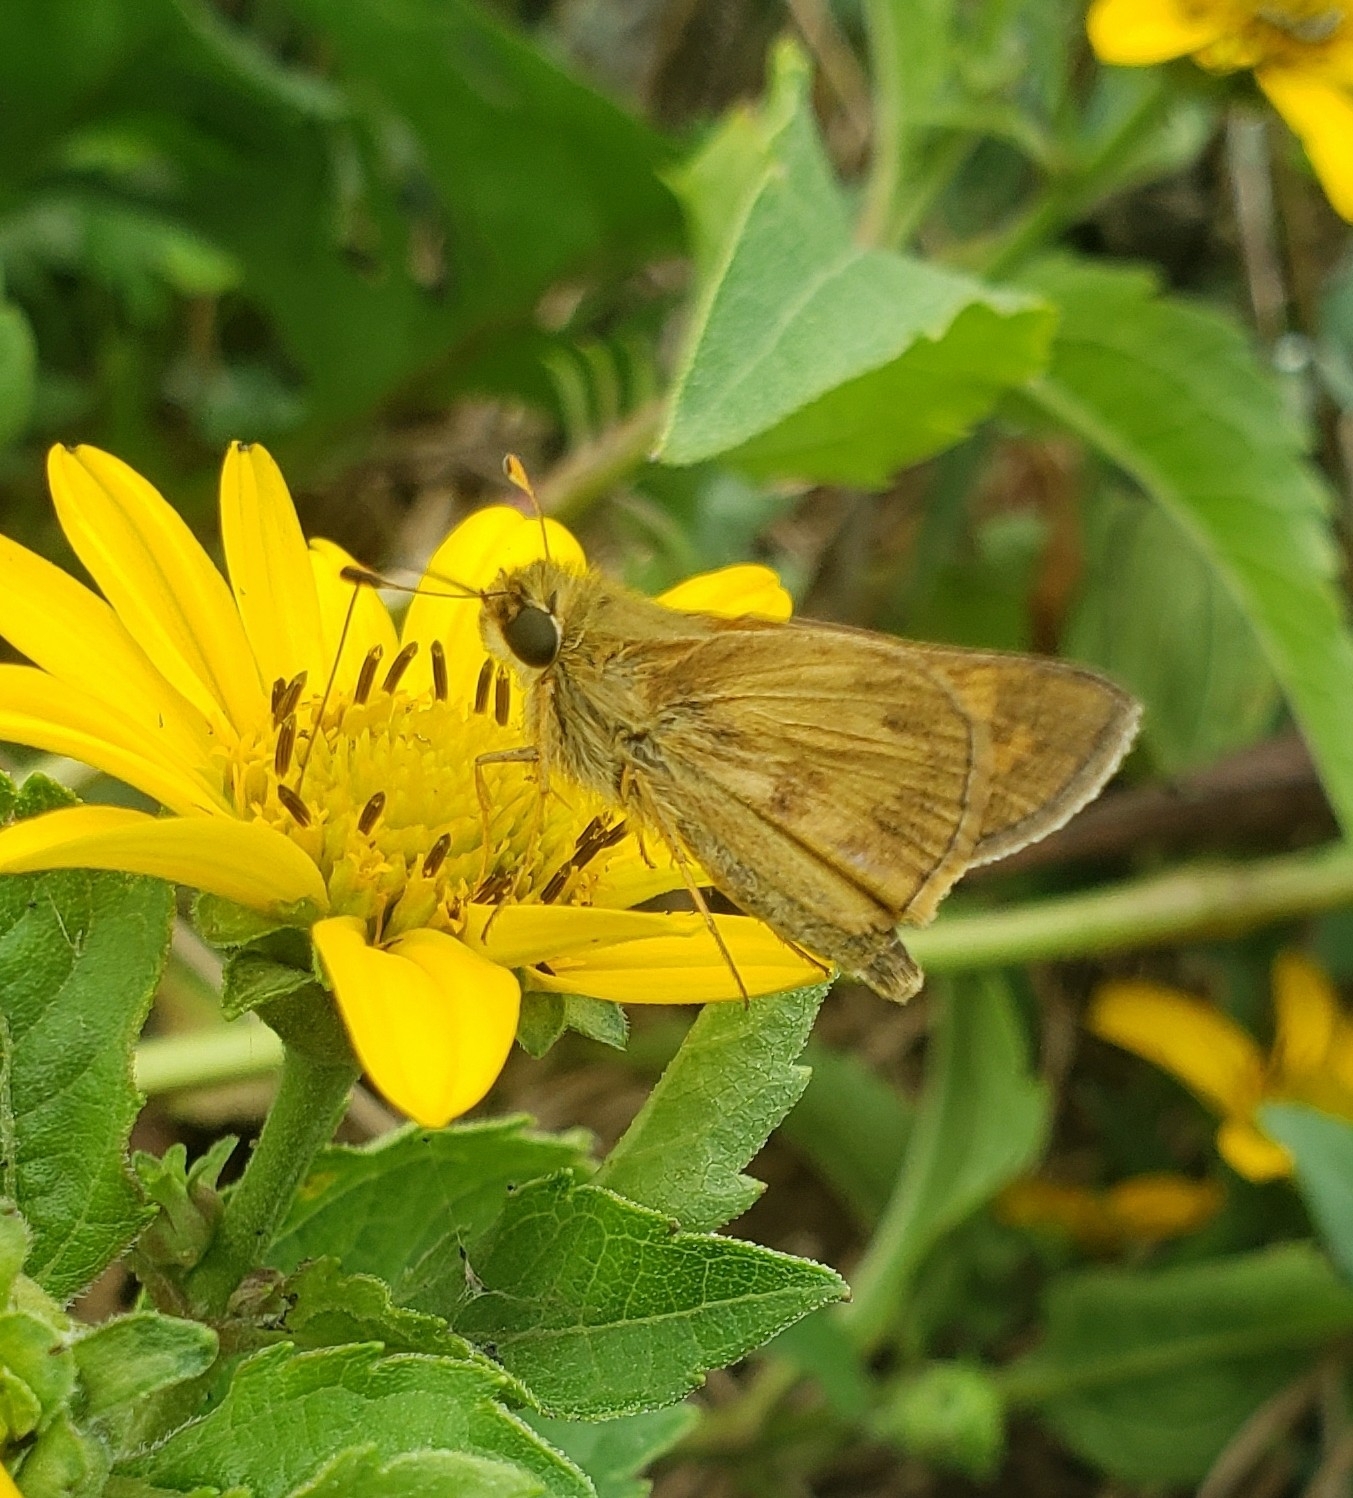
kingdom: Animalia
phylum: Arthropoda
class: Insecta
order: Lepidoptera
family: Hesperiidae
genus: Atalopedes
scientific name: Atalopedes
